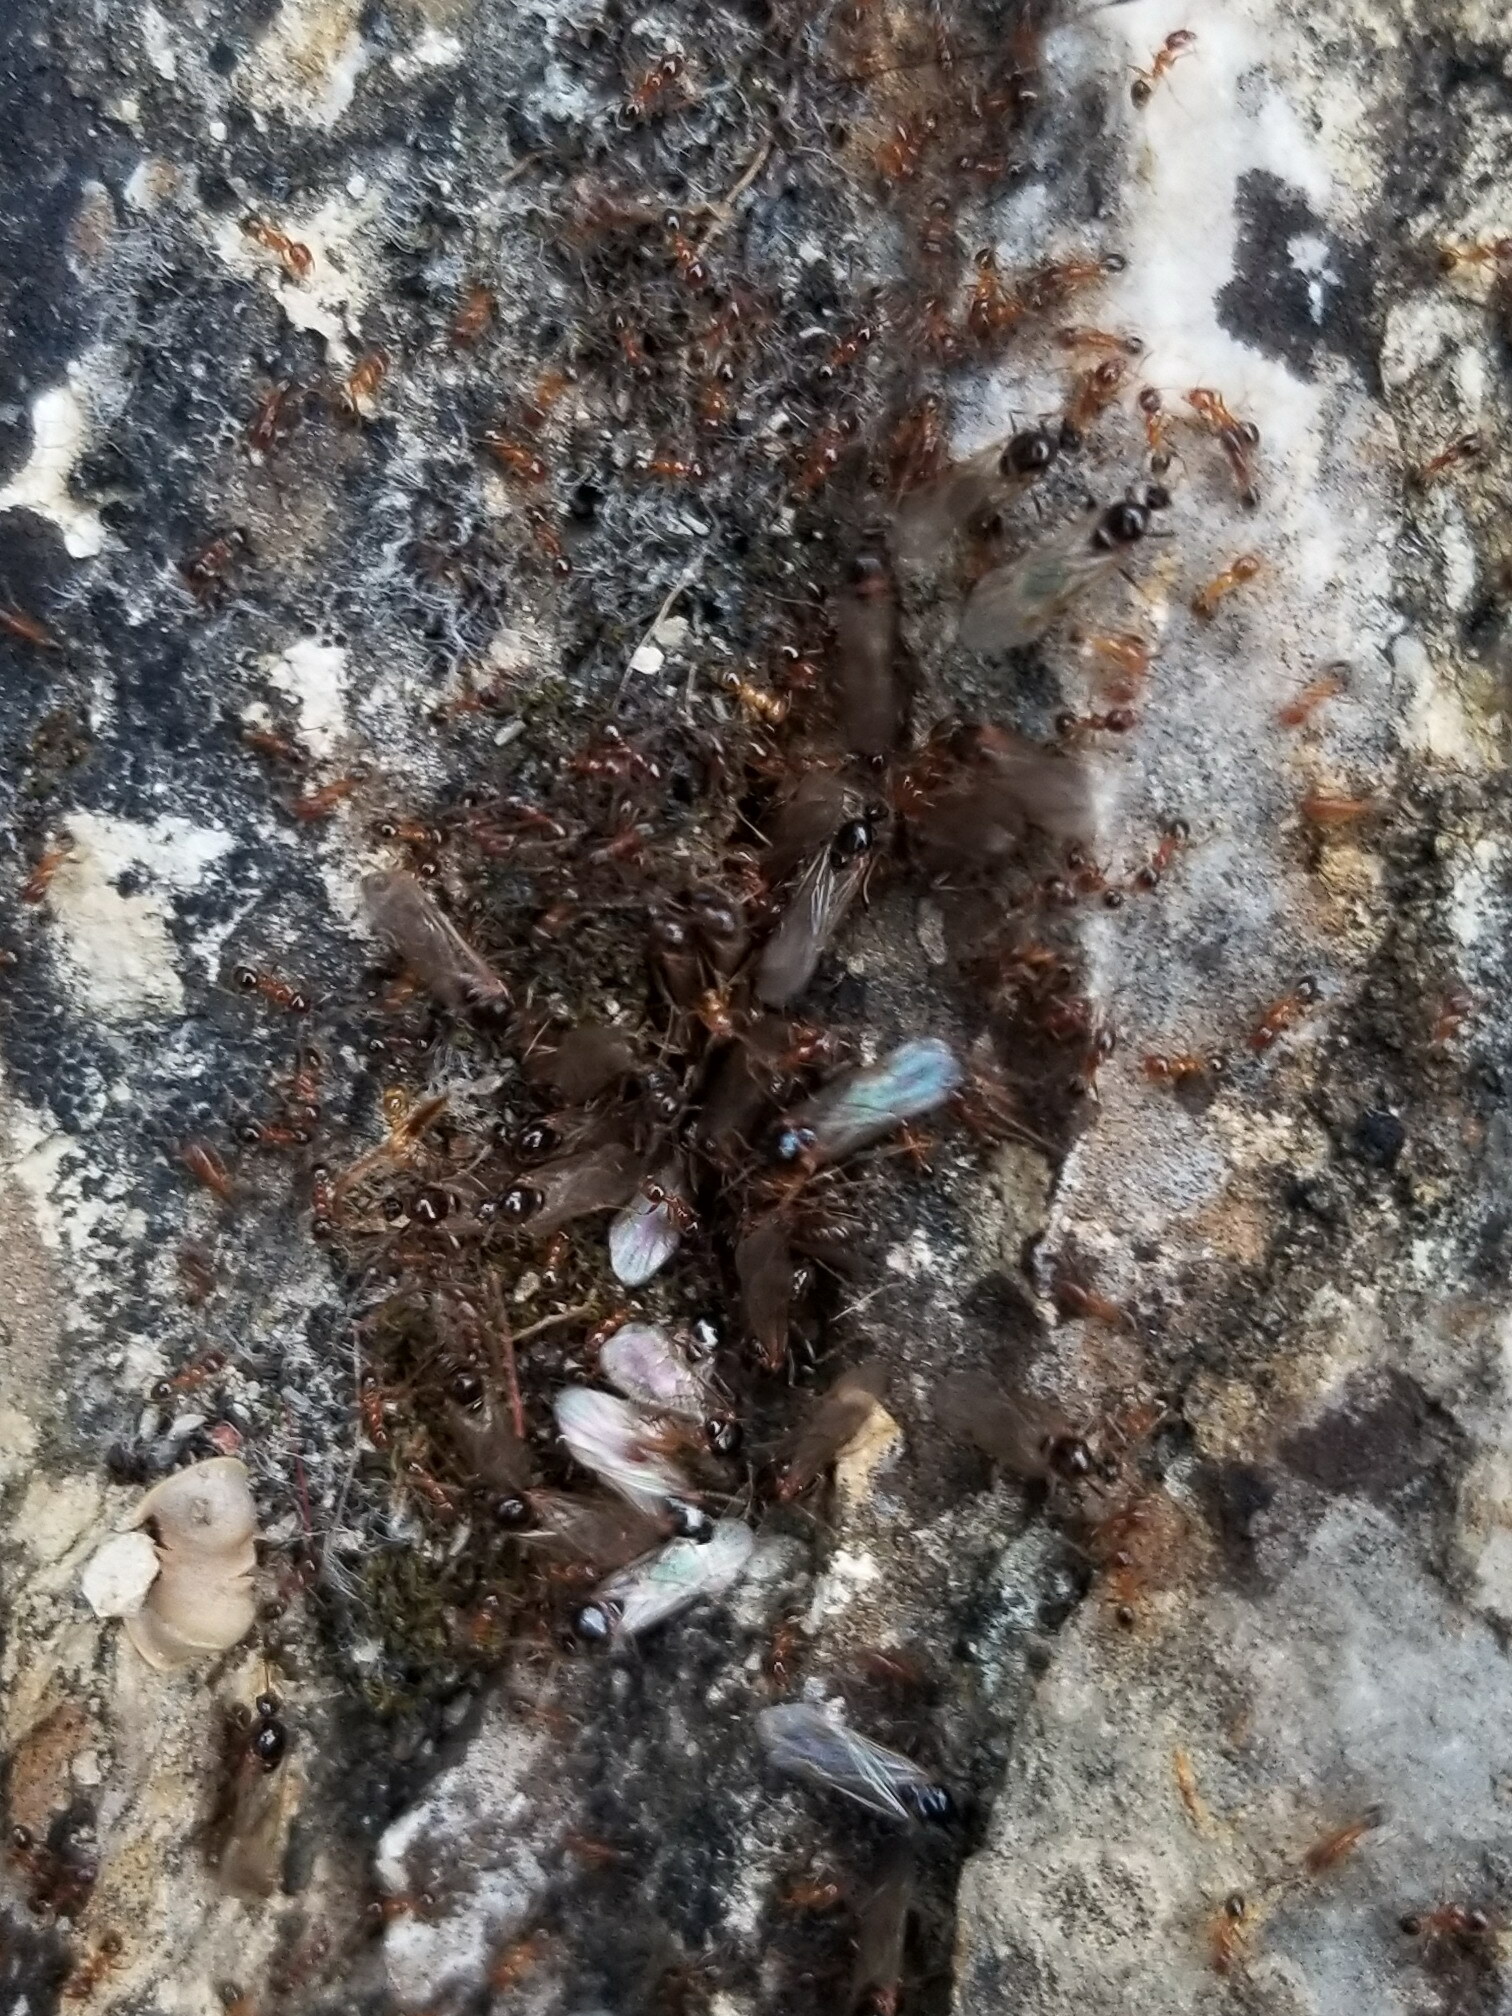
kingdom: Animalia
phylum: Arthropoda
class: Insecta
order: Hymenoptera
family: Formicidae
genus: Pheidole
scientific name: Pheidole pallidula
